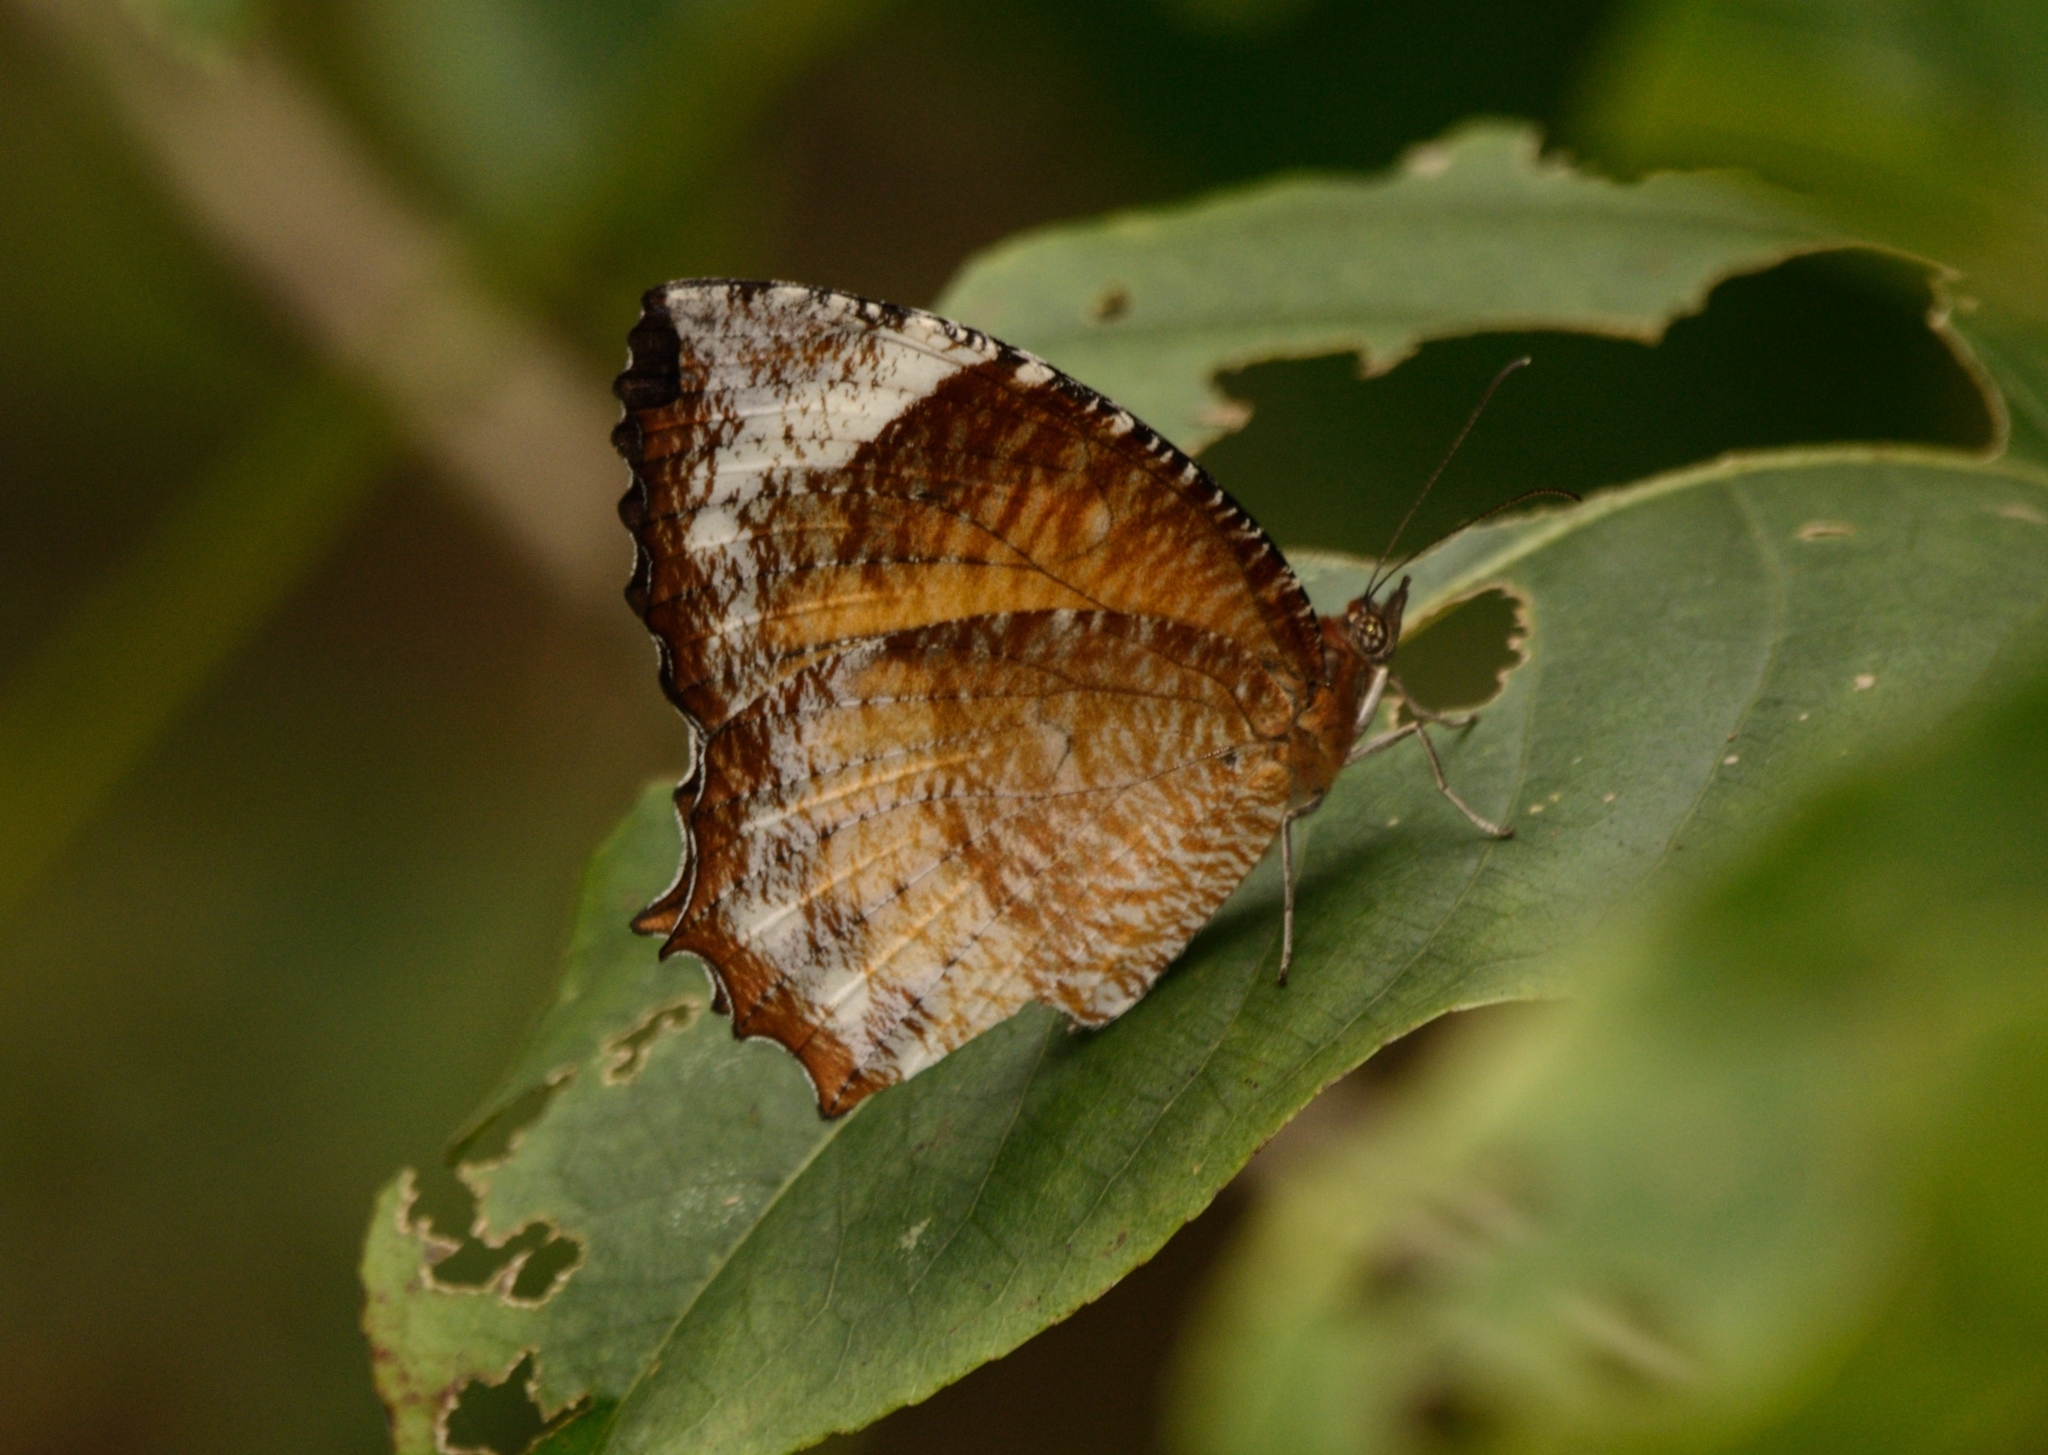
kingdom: Animalia
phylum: Arthropoda
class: Insecta
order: Lepidoptera
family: Nymphalidae
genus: Elymnias
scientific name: Elymnias hypermnestra
